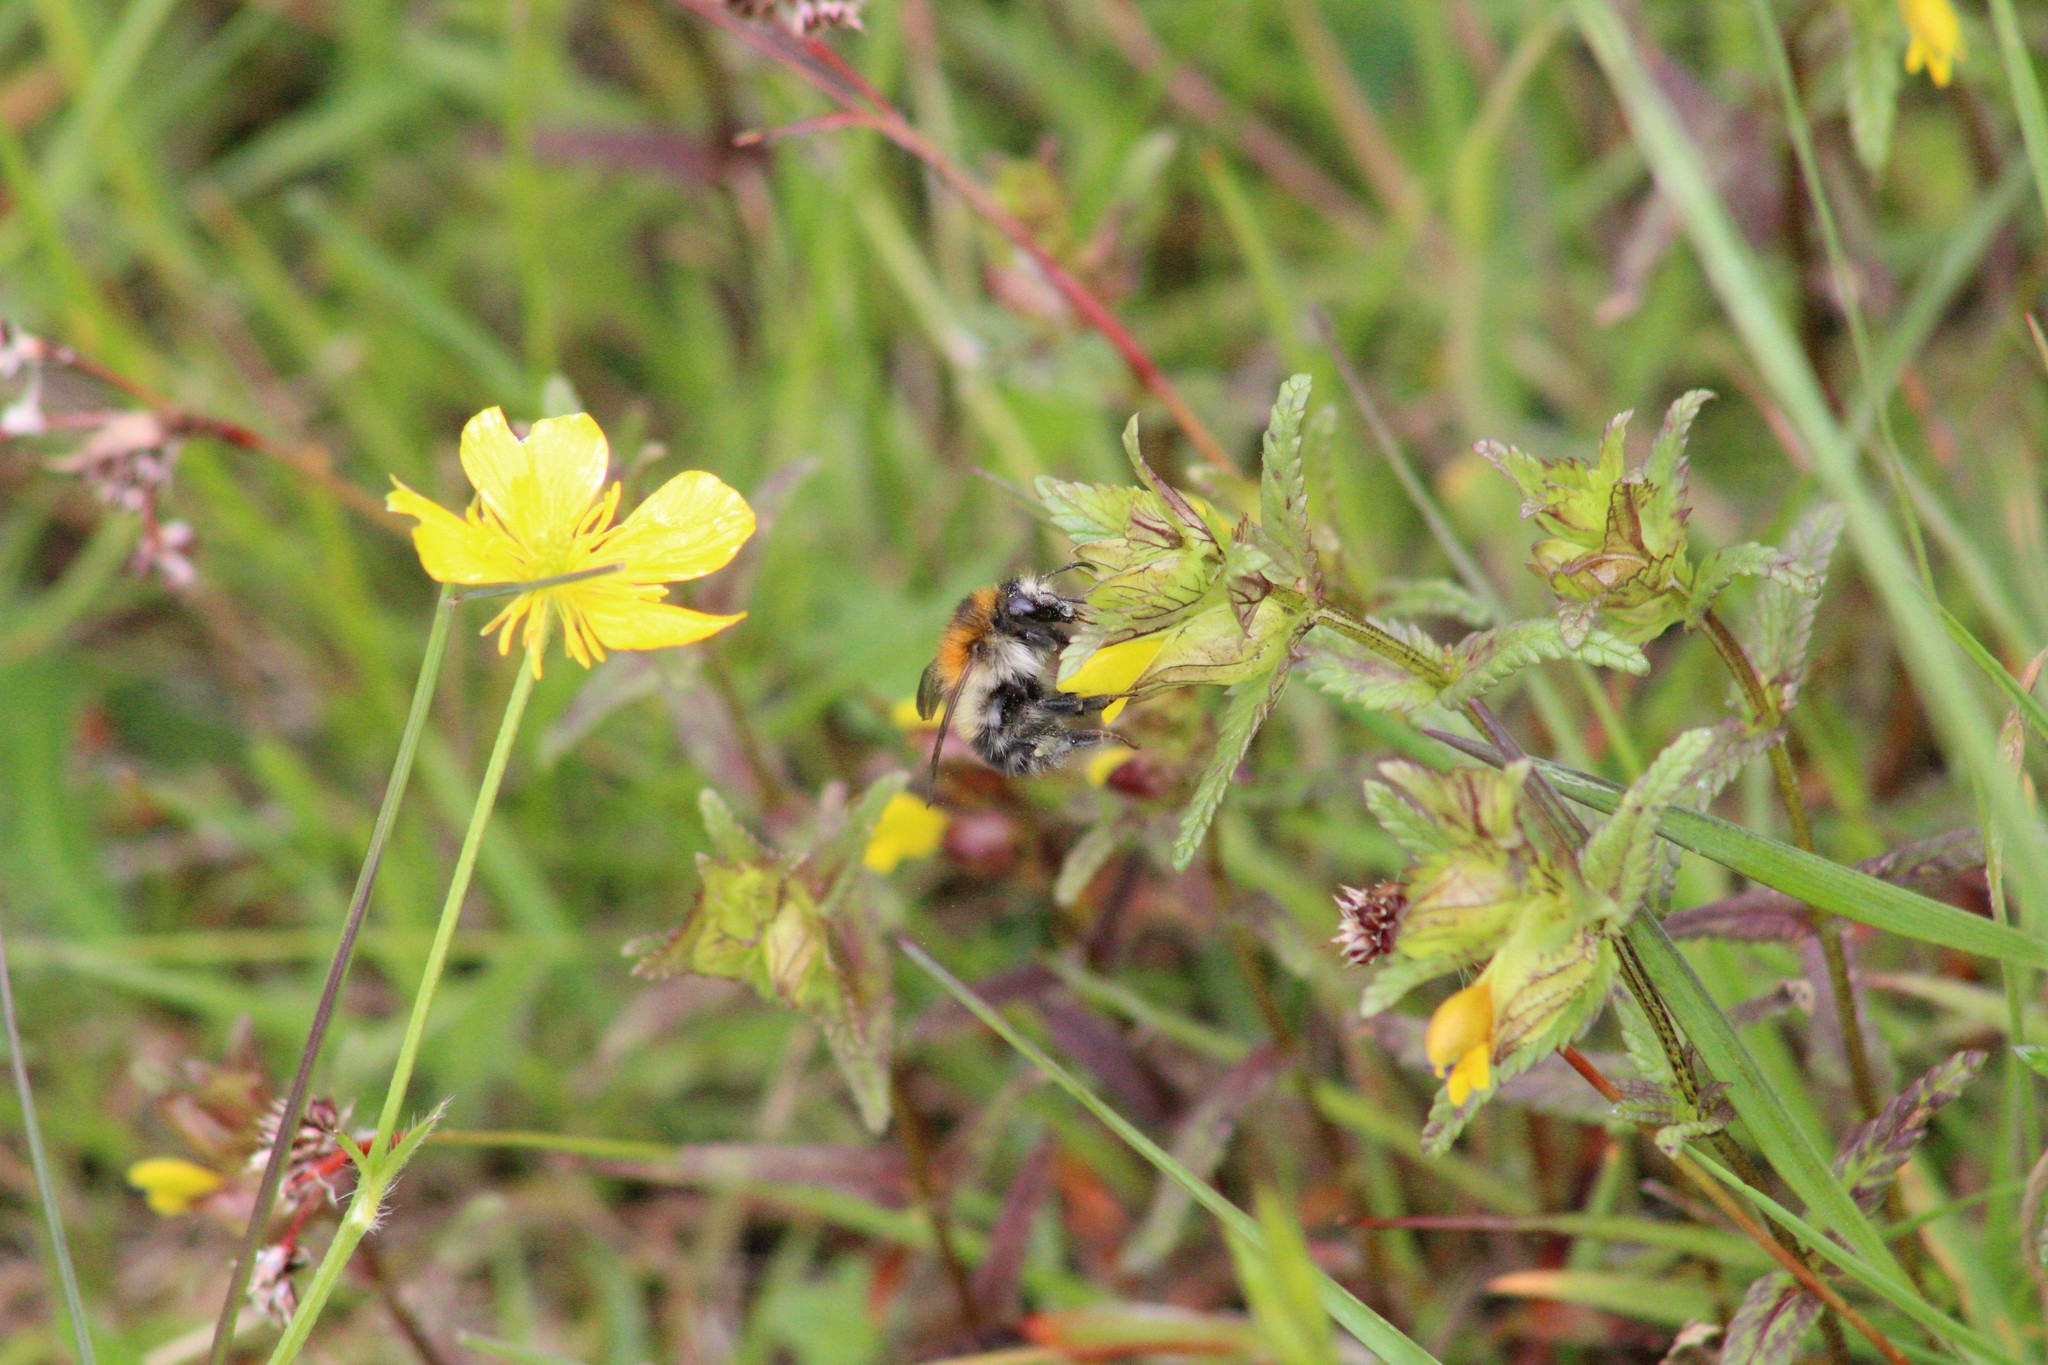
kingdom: Animalia
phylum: Arthropoda
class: Insecta
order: Hymenoptera
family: Apidae
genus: Bombus
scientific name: Bombus pascuorum
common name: Common carder bee
